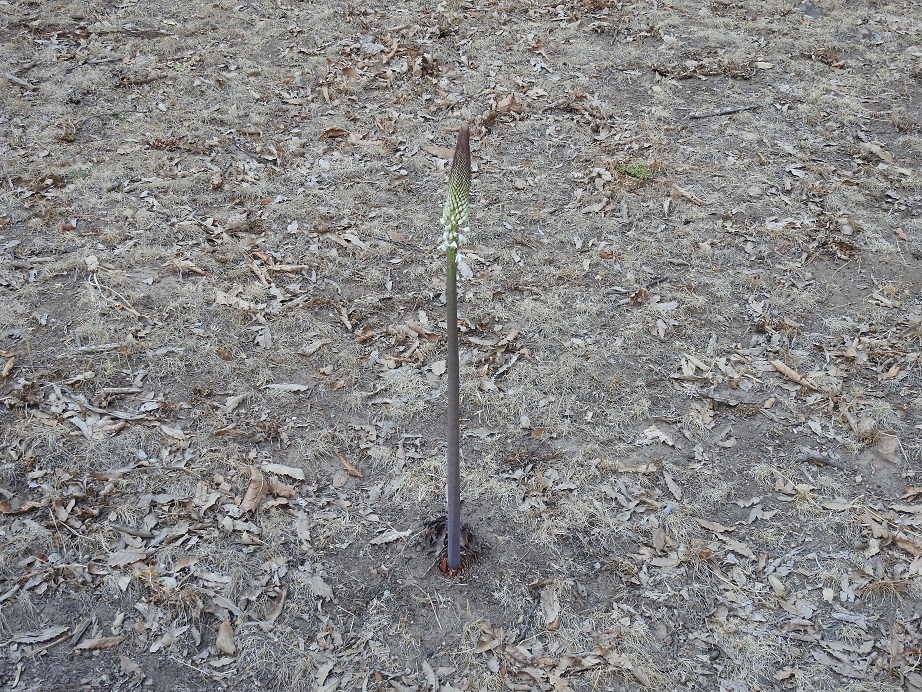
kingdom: Plantae
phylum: Tracheophyta
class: Liliopsida
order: Asparagales
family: Asparagaceae
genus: Drimia
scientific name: Drimia numidica
